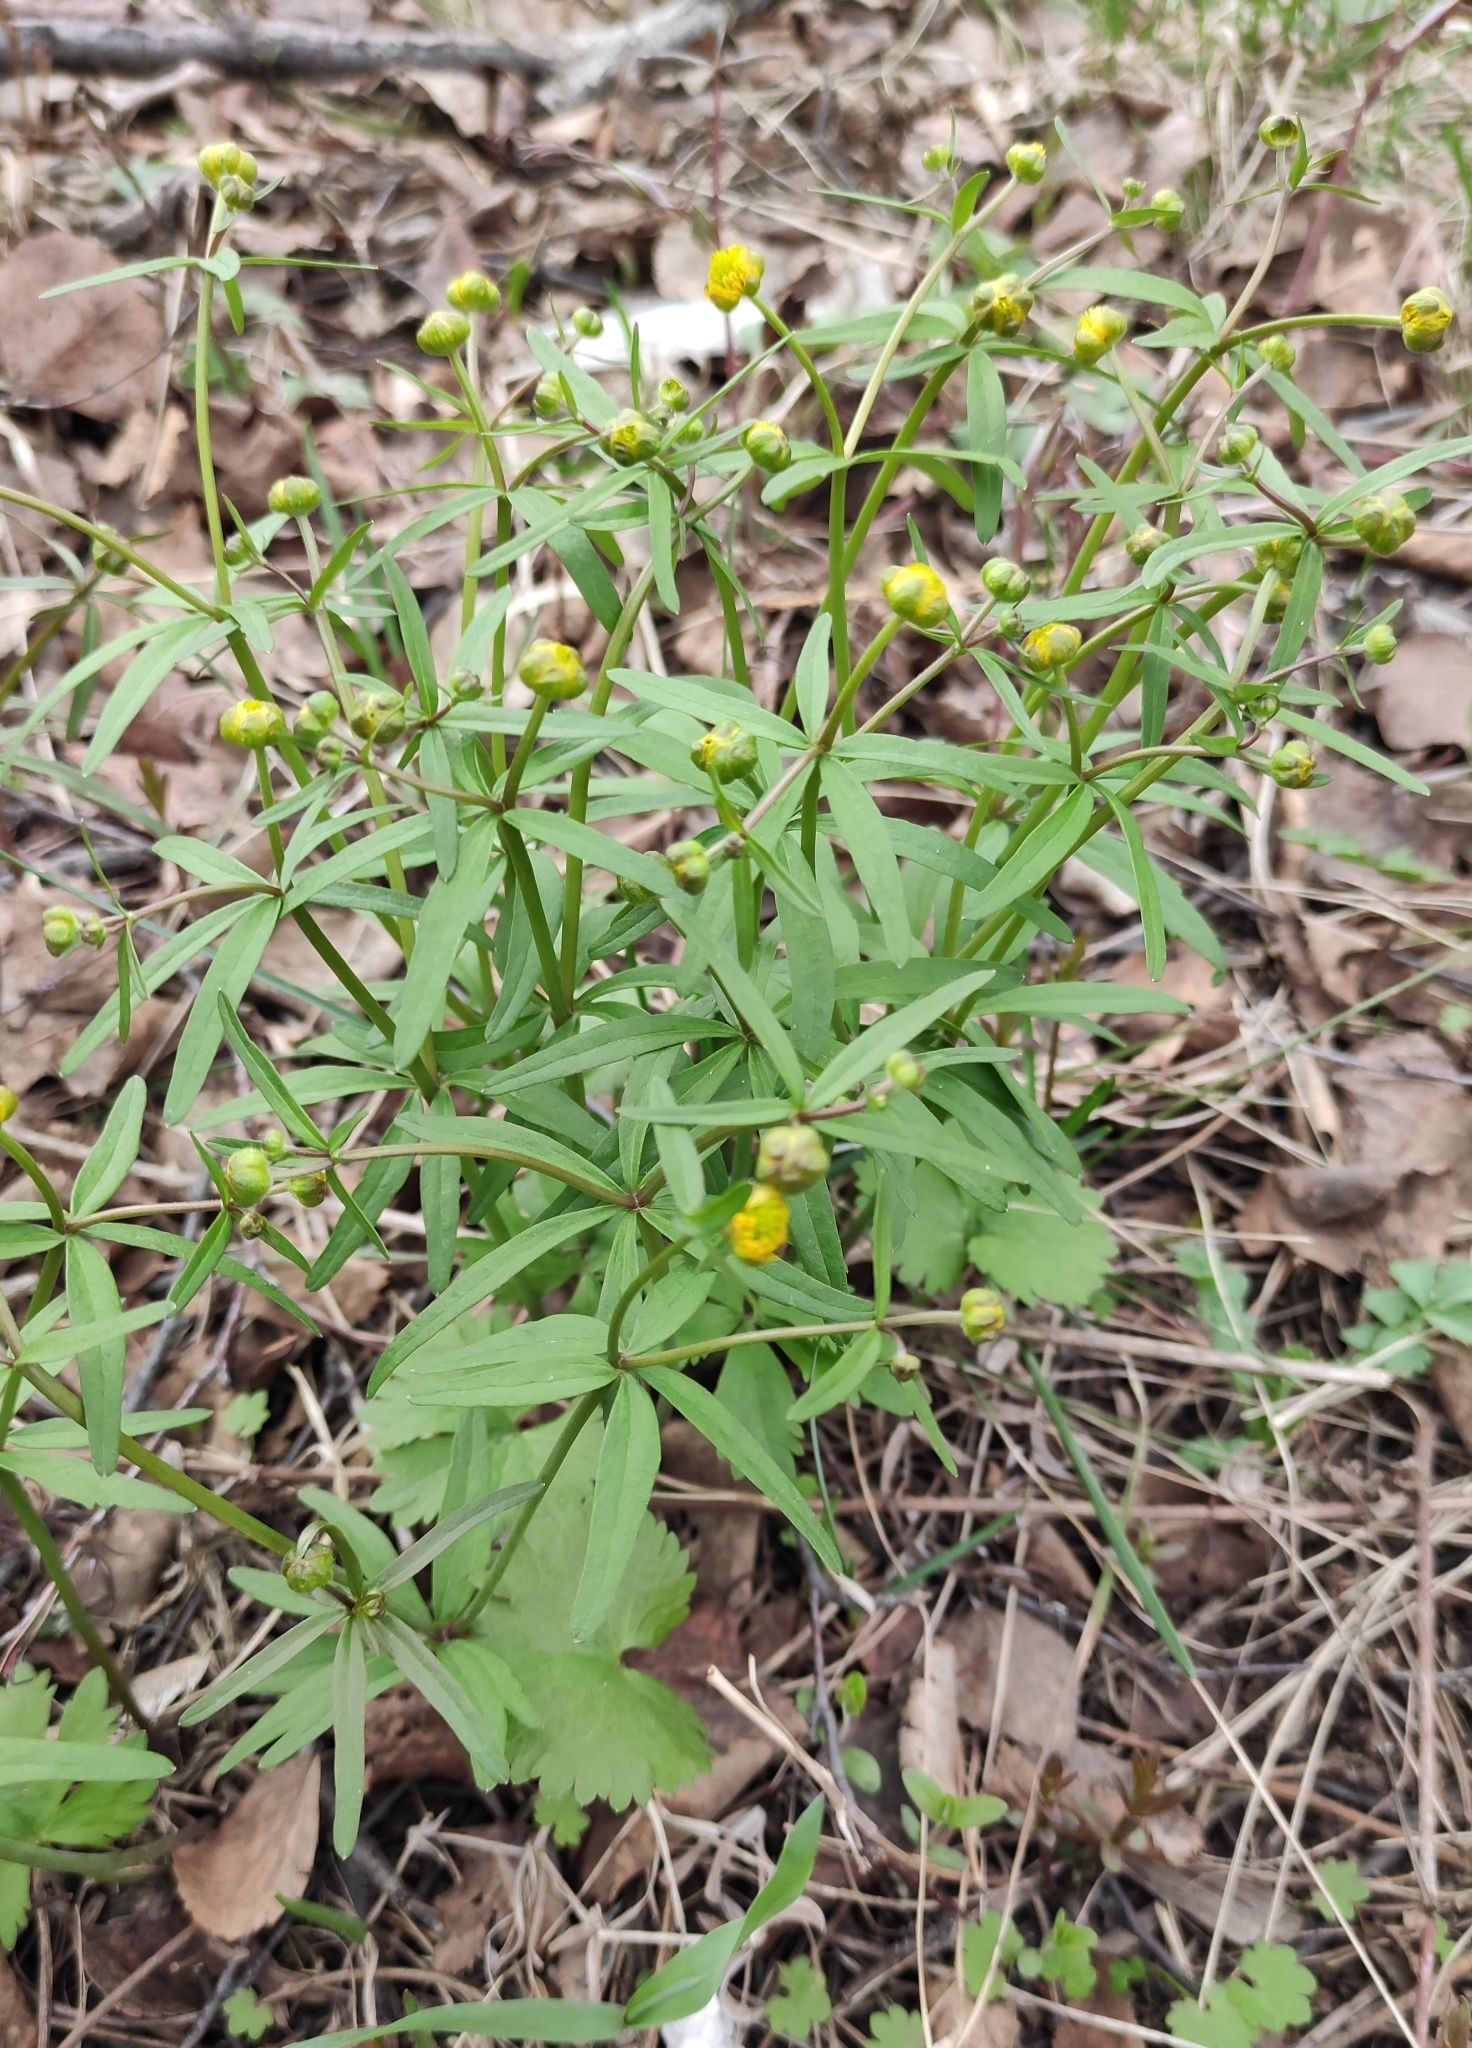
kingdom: Plantae
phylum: Tracheophyta
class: Magnoliopsida
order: Ranunculales
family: Ranunculaceae
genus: Ranunculus
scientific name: Ranunculus monophyllus
